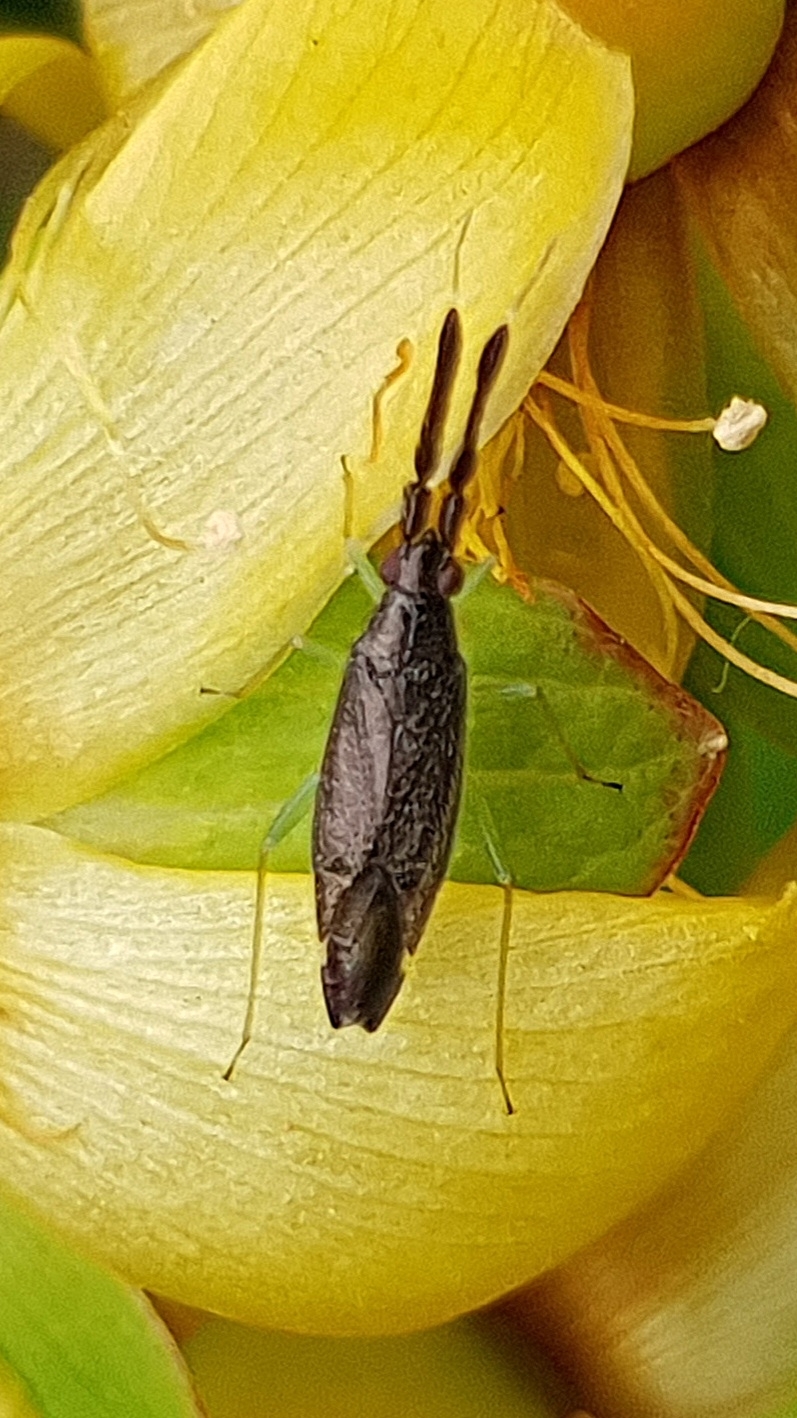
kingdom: Animalia
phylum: Arthropoda
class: Insecta
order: Hemiptera
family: Miridae
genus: Heterotoma
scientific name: Heterotoma planicornis
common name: Plant bug
